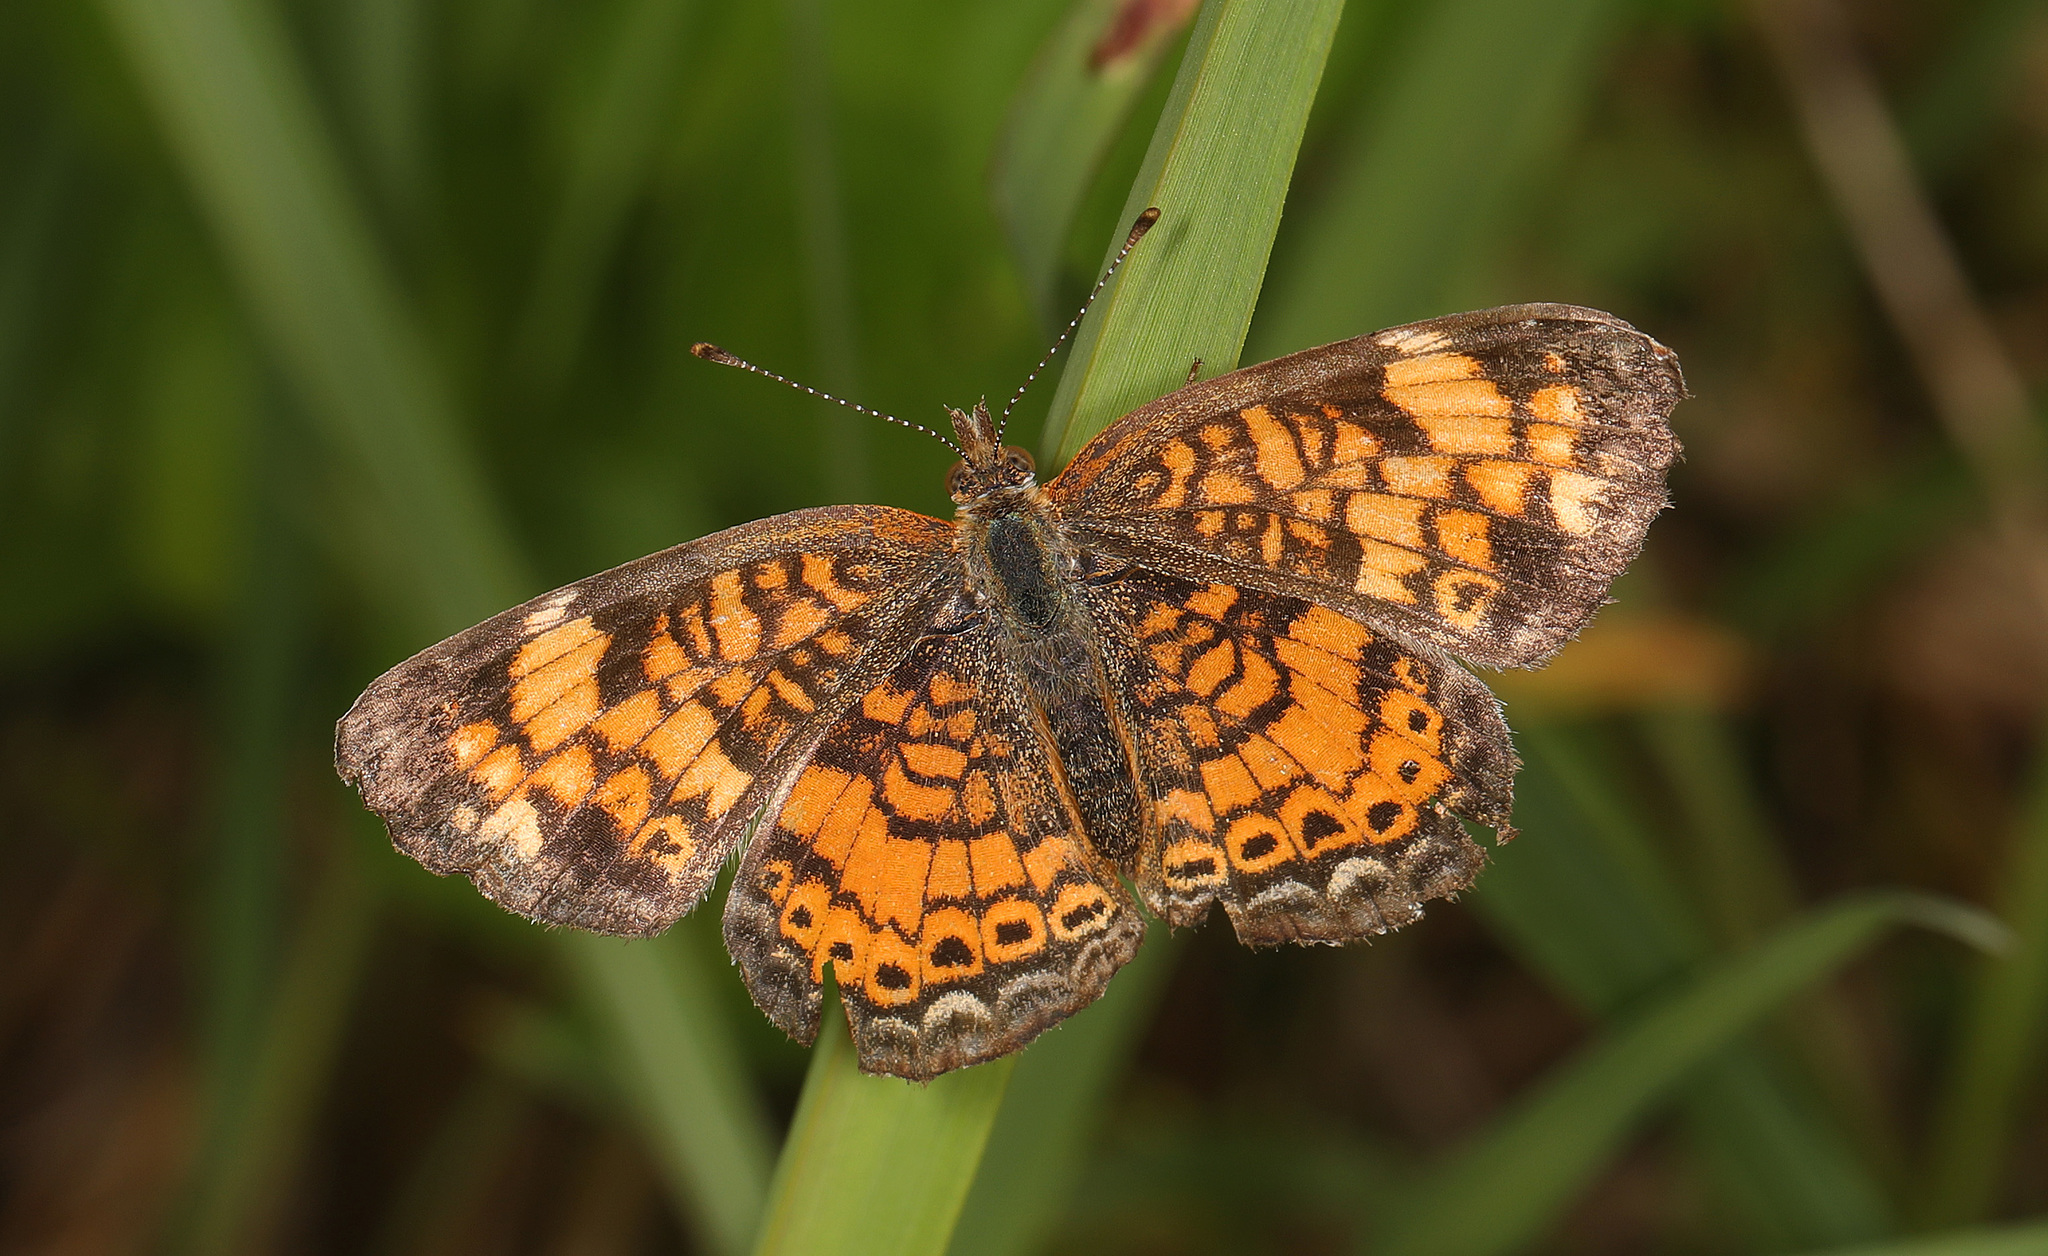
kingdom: Animalia
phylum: Arthropoda
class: Insecta
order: Lepidoptera
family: Nymphalidae
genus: Phyciodes
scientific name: Phyciodes tharos
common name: Pearl crescent
